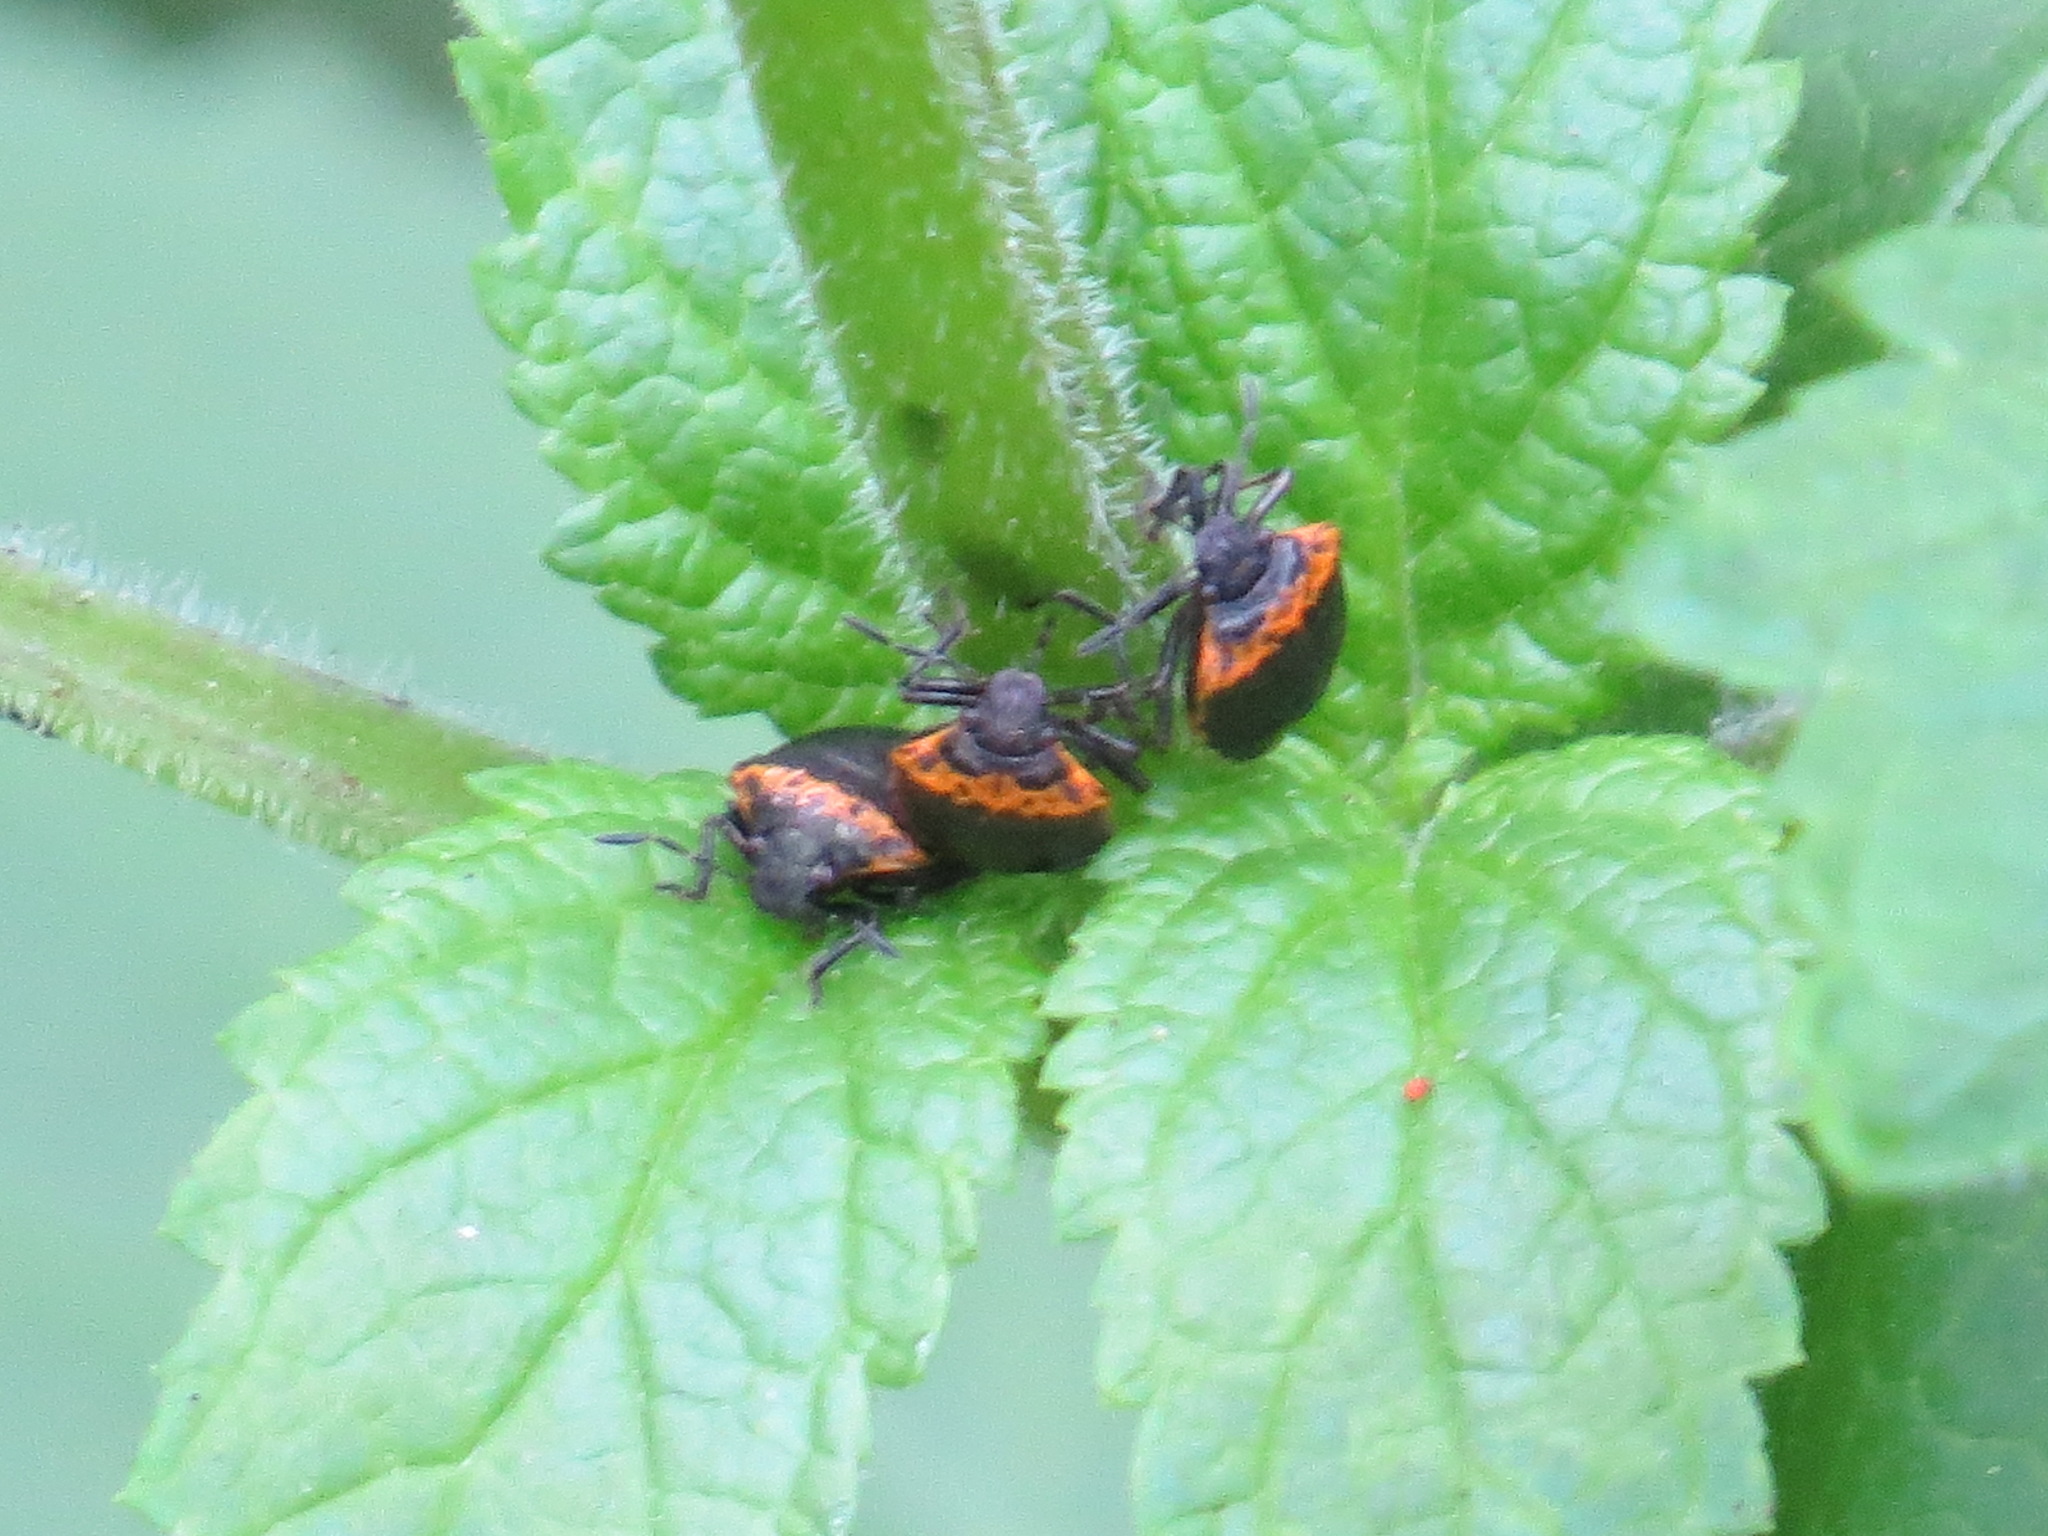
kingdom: Animalia
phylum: Arthropoda
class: Insecta
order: Hemiptera
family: Pentatomidae
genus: Cosmopepla
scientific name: Cosmopepla uhleri
